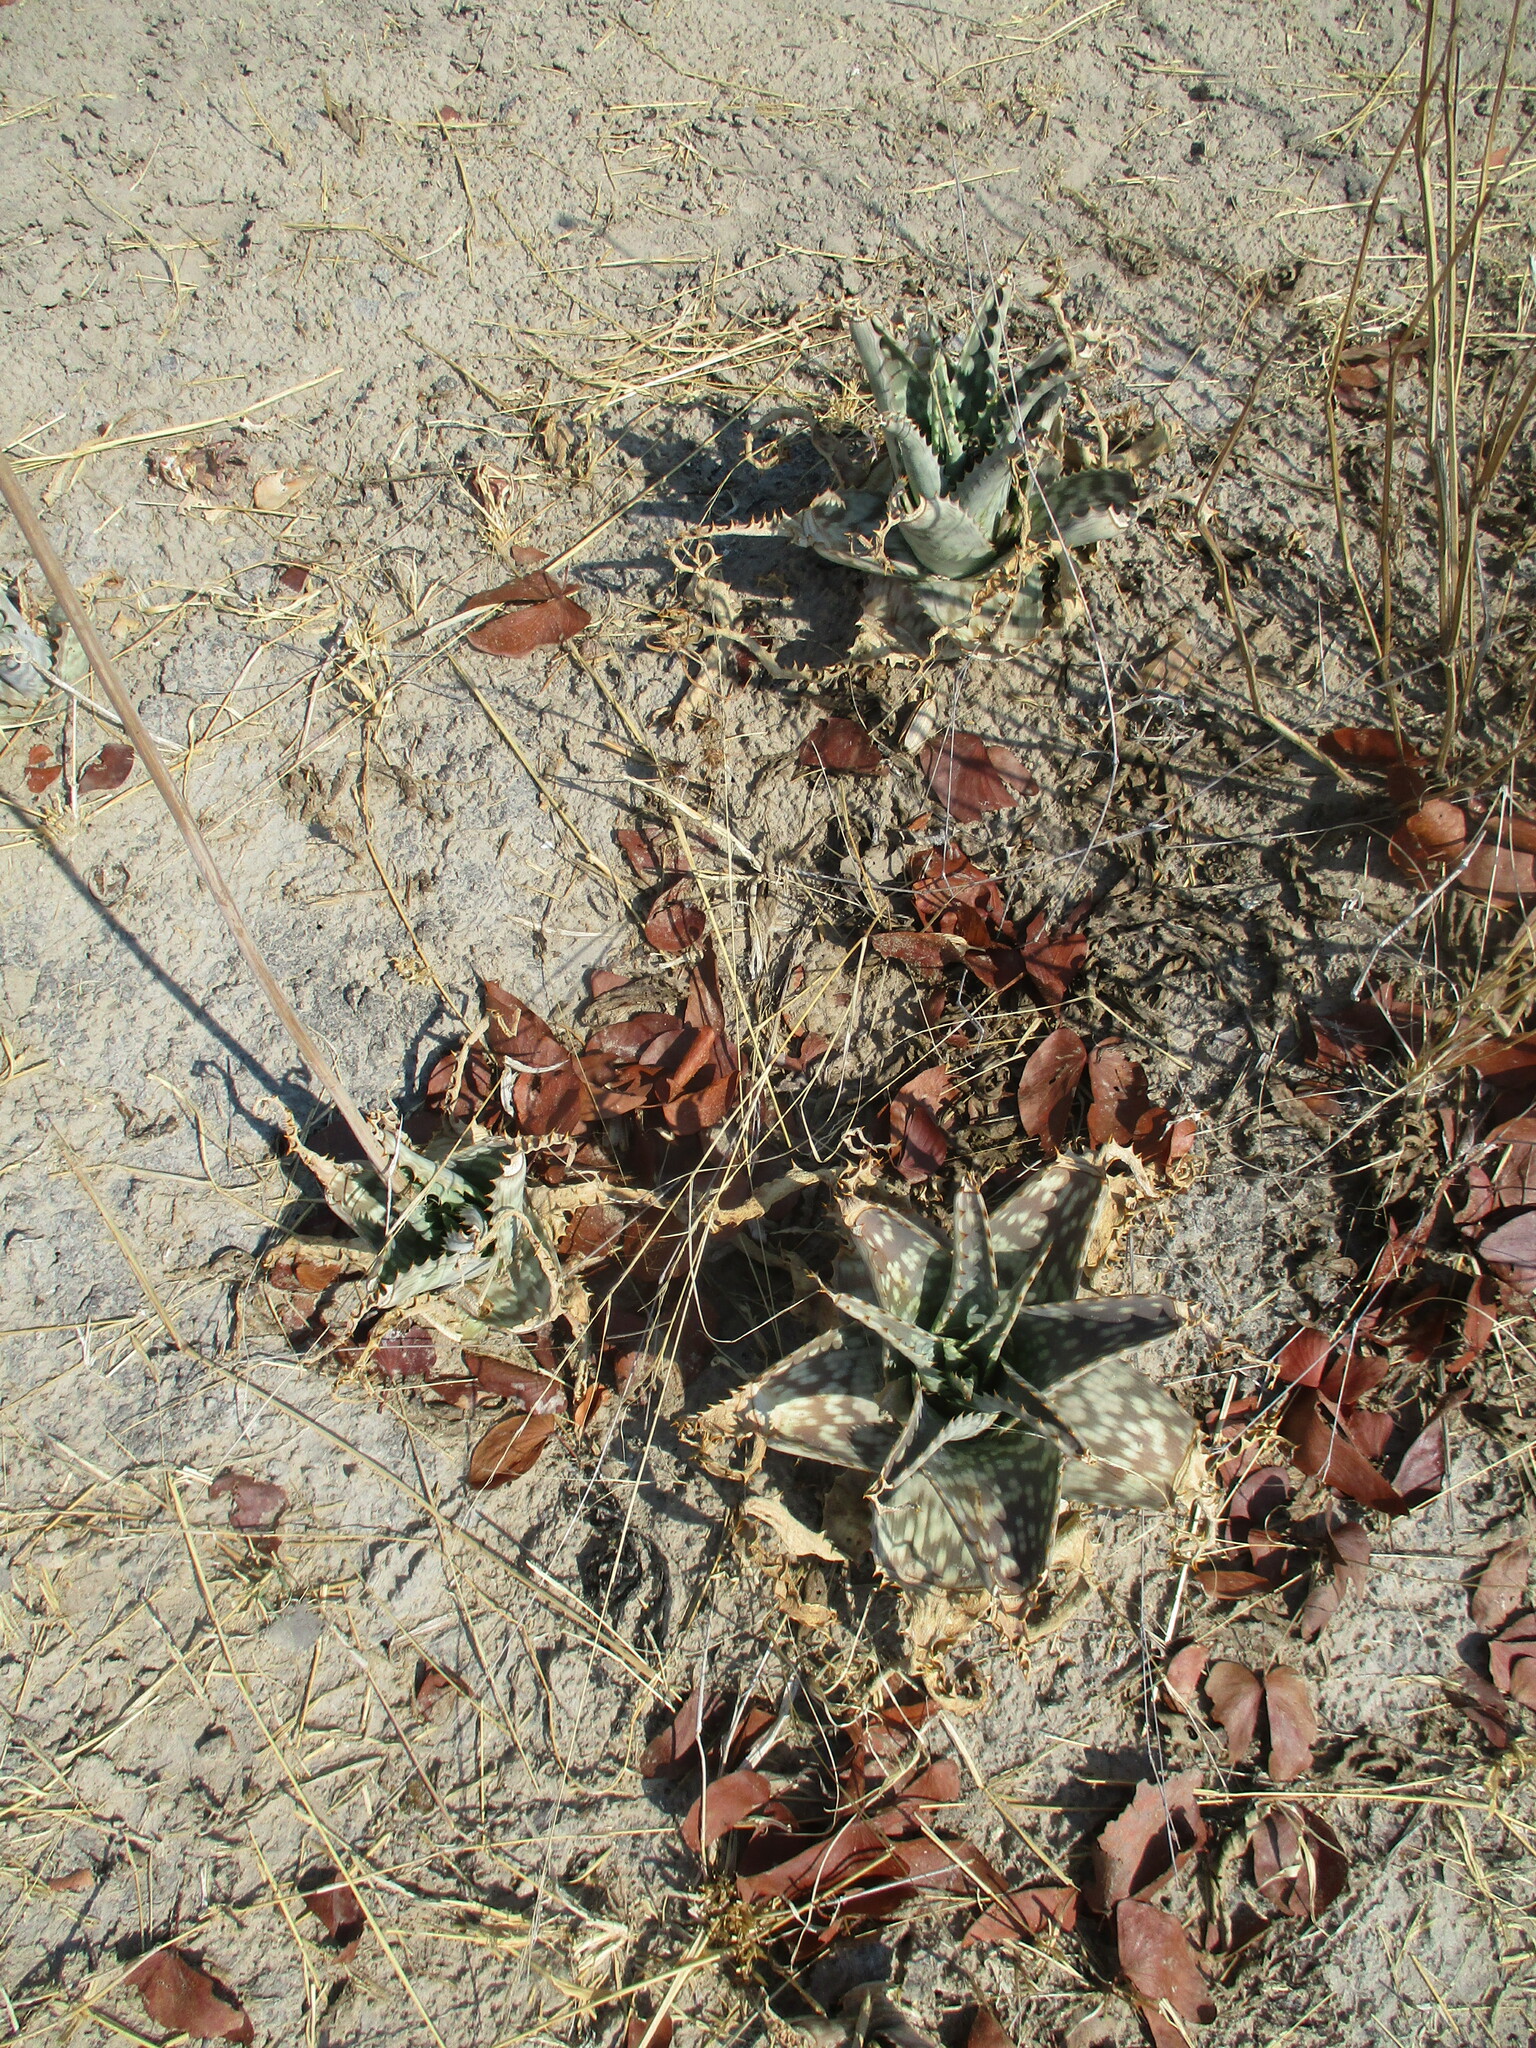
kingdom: Plantae
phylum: Tracheophyta
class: Liliopsida
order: Asparagales
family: Asphodelaceae
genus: Aloe
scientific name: Aloe zebrina
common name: Zebra-leaf aloe
